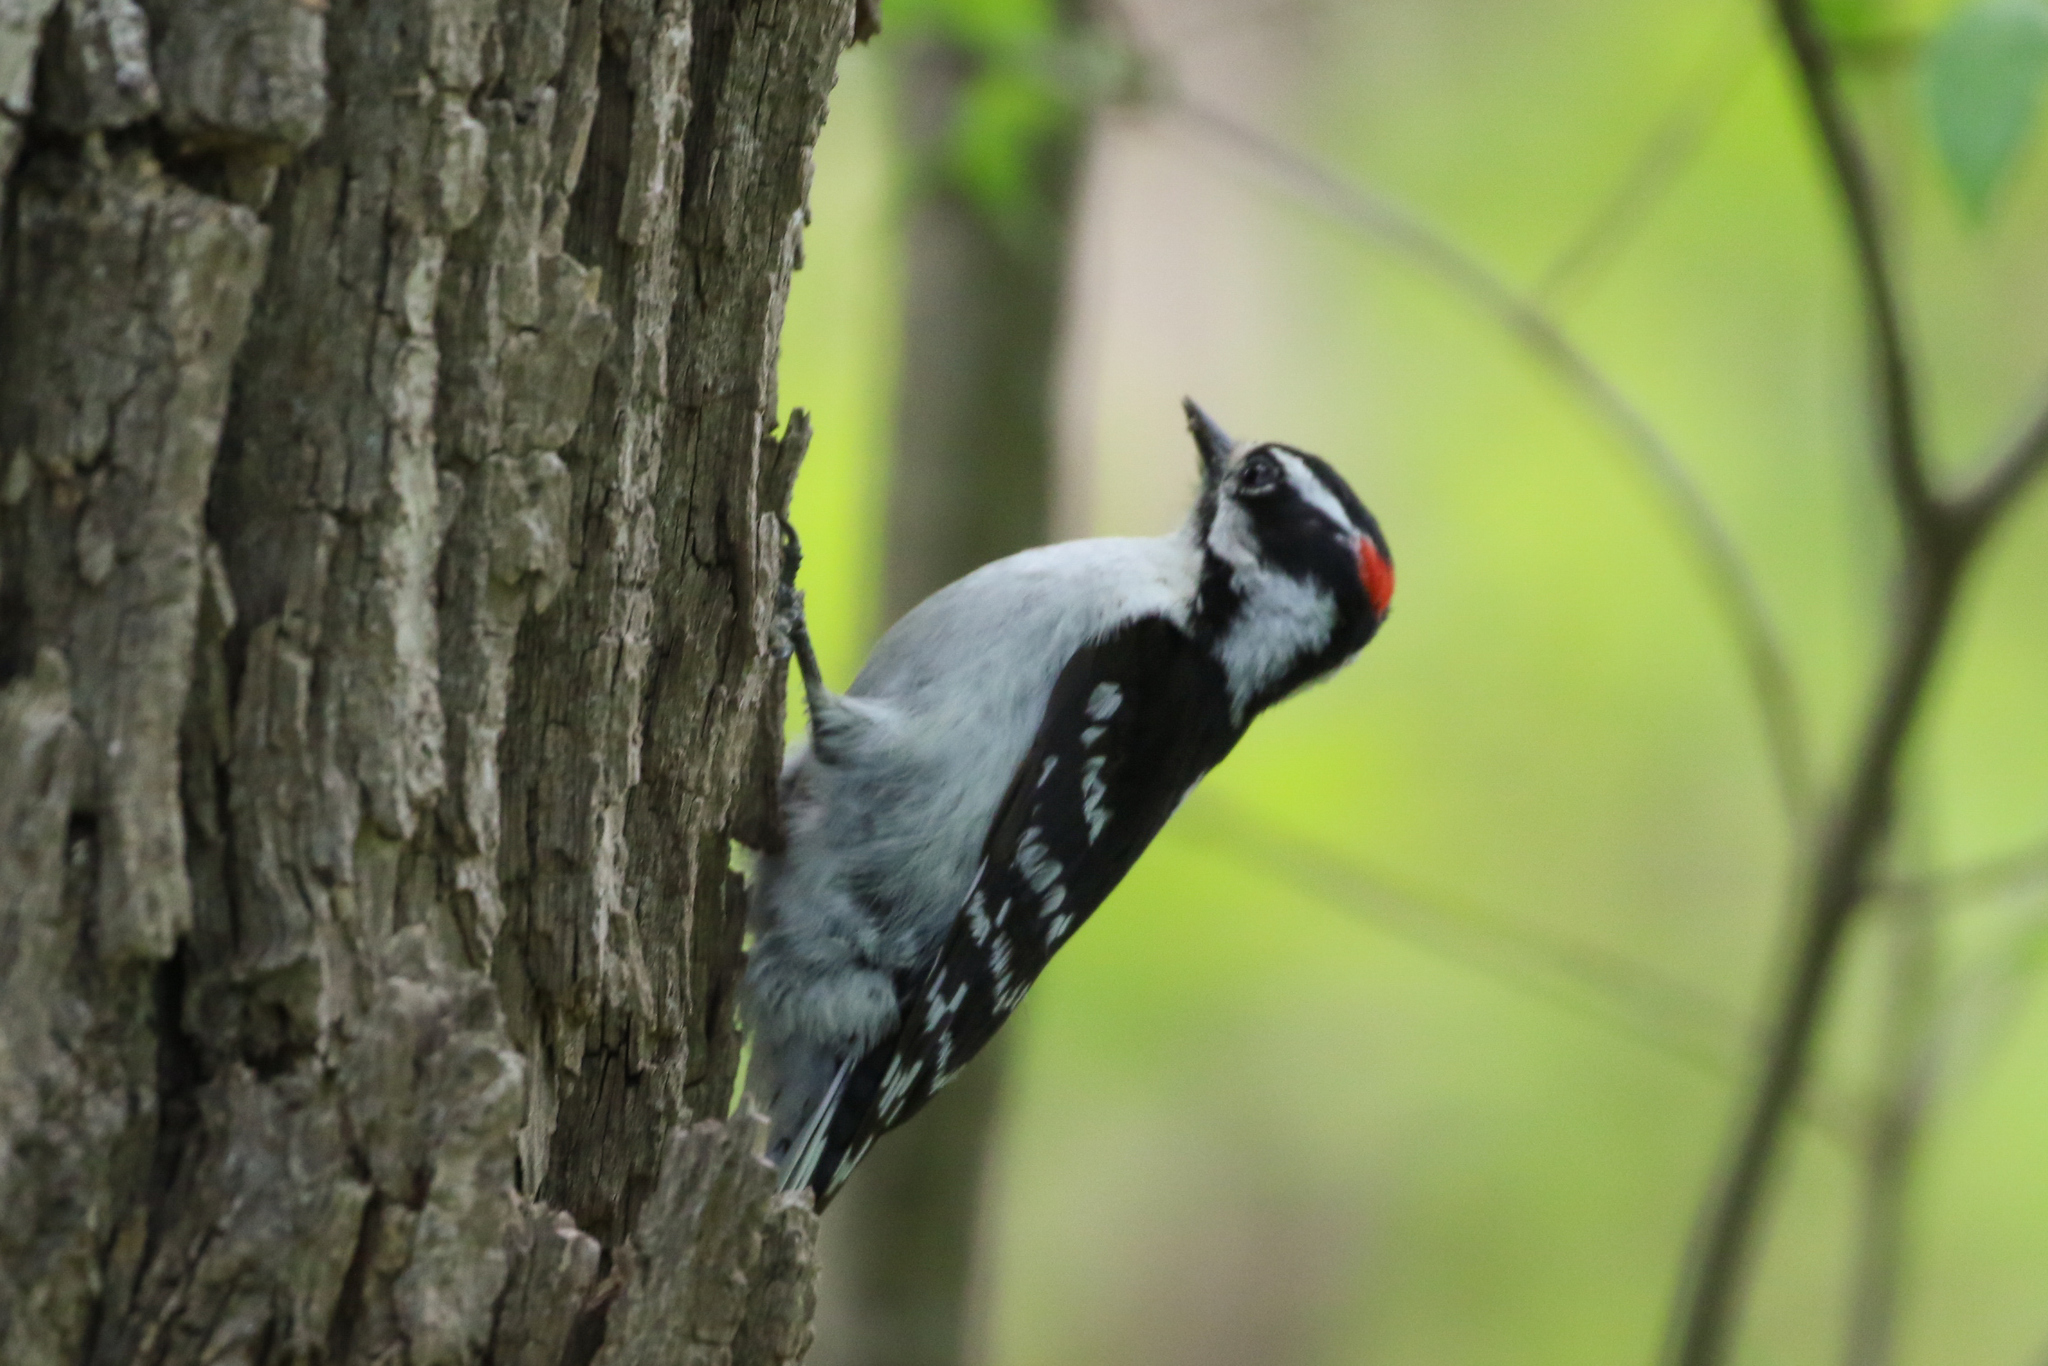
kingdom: Animalia
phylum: Chordata
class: Aves
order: Piciformes
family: Picidae
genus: Dryobates
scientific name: Dryobates pubescens
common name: Downy woodpecker
